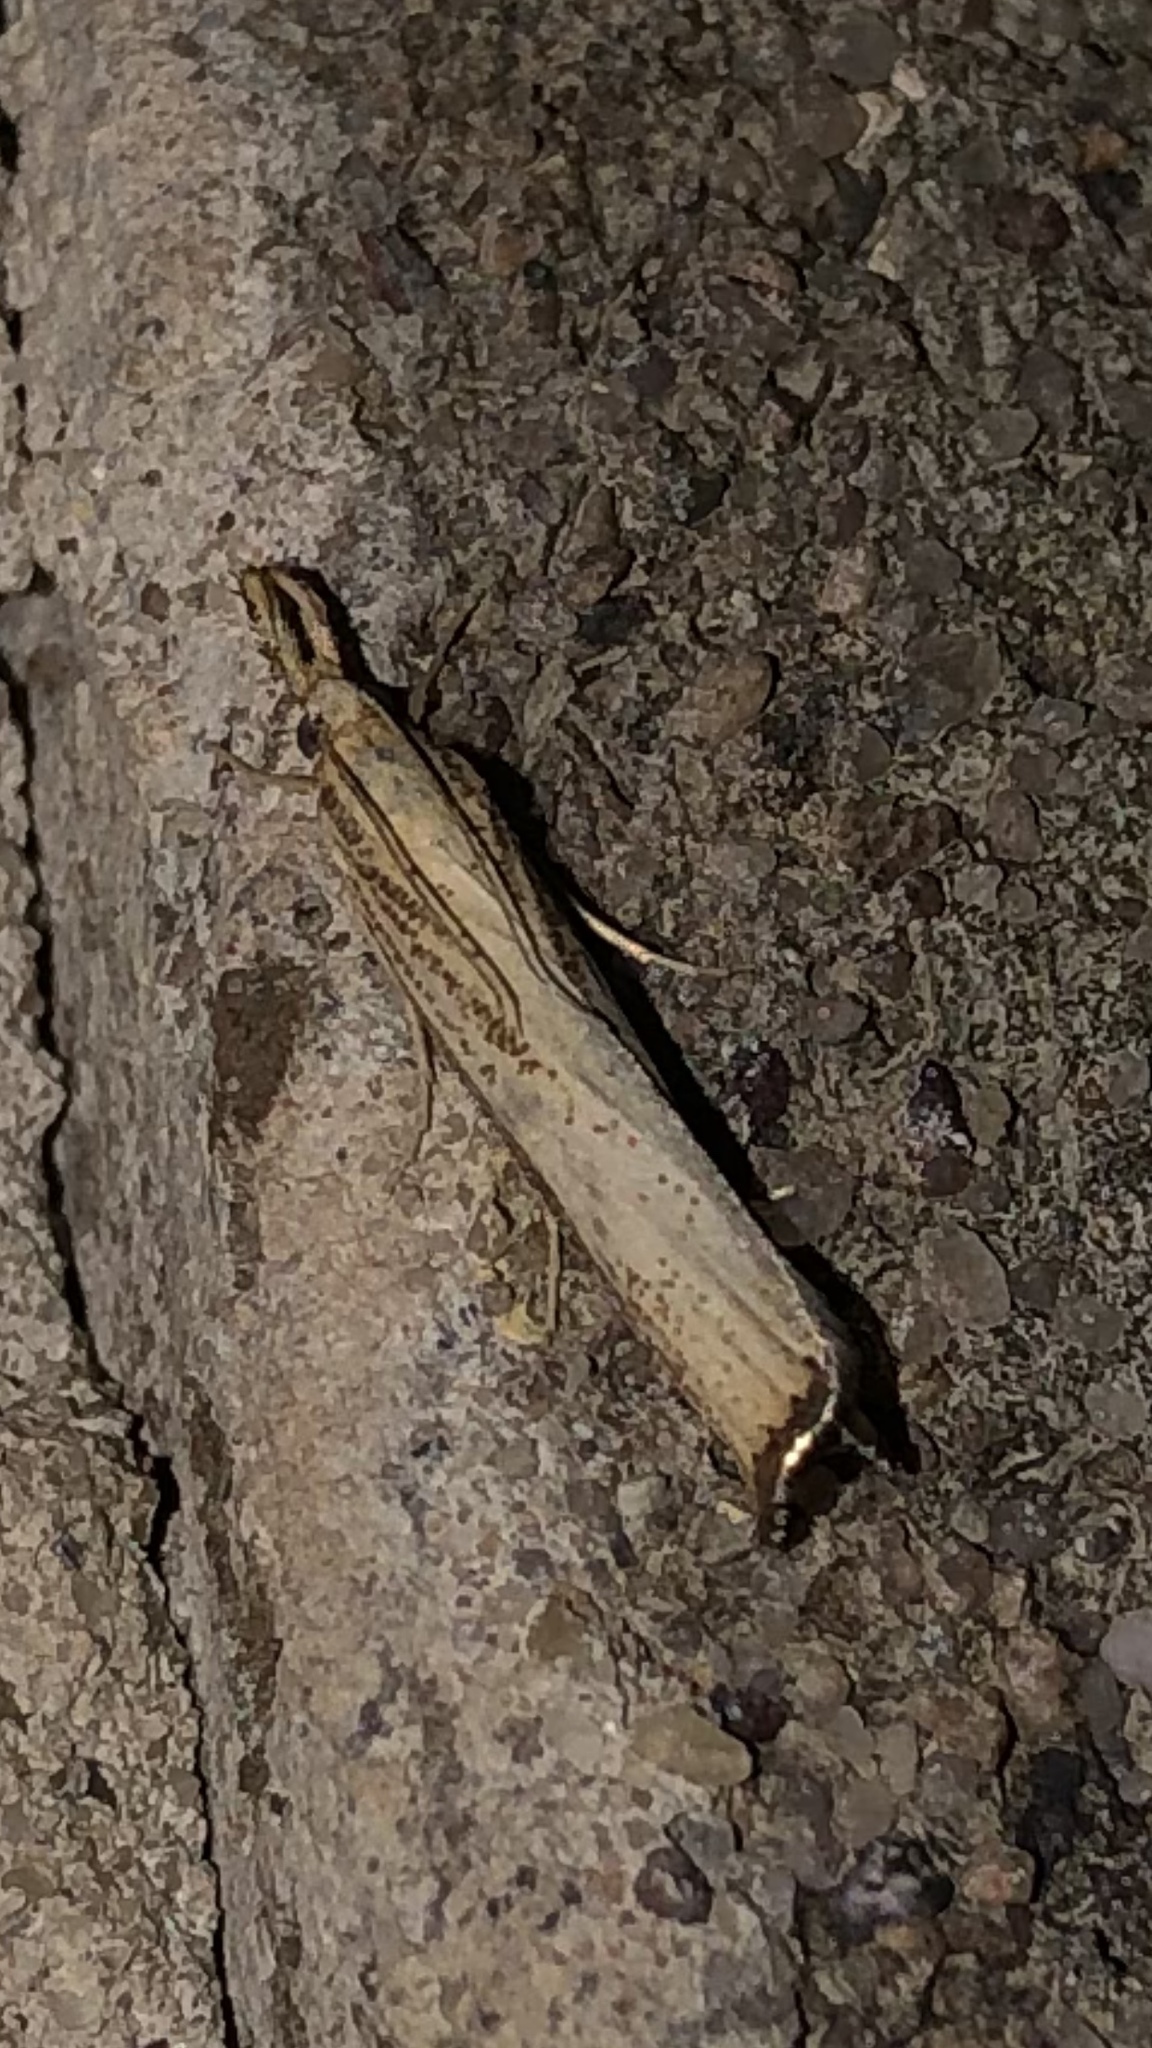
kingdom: Animalia
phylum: Arthropoda
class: Insecta
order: Lepidoptera
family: Crambidae
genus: Agriphila
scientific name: Agriphila vulgivagellus
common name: Vagabond crambus moth
